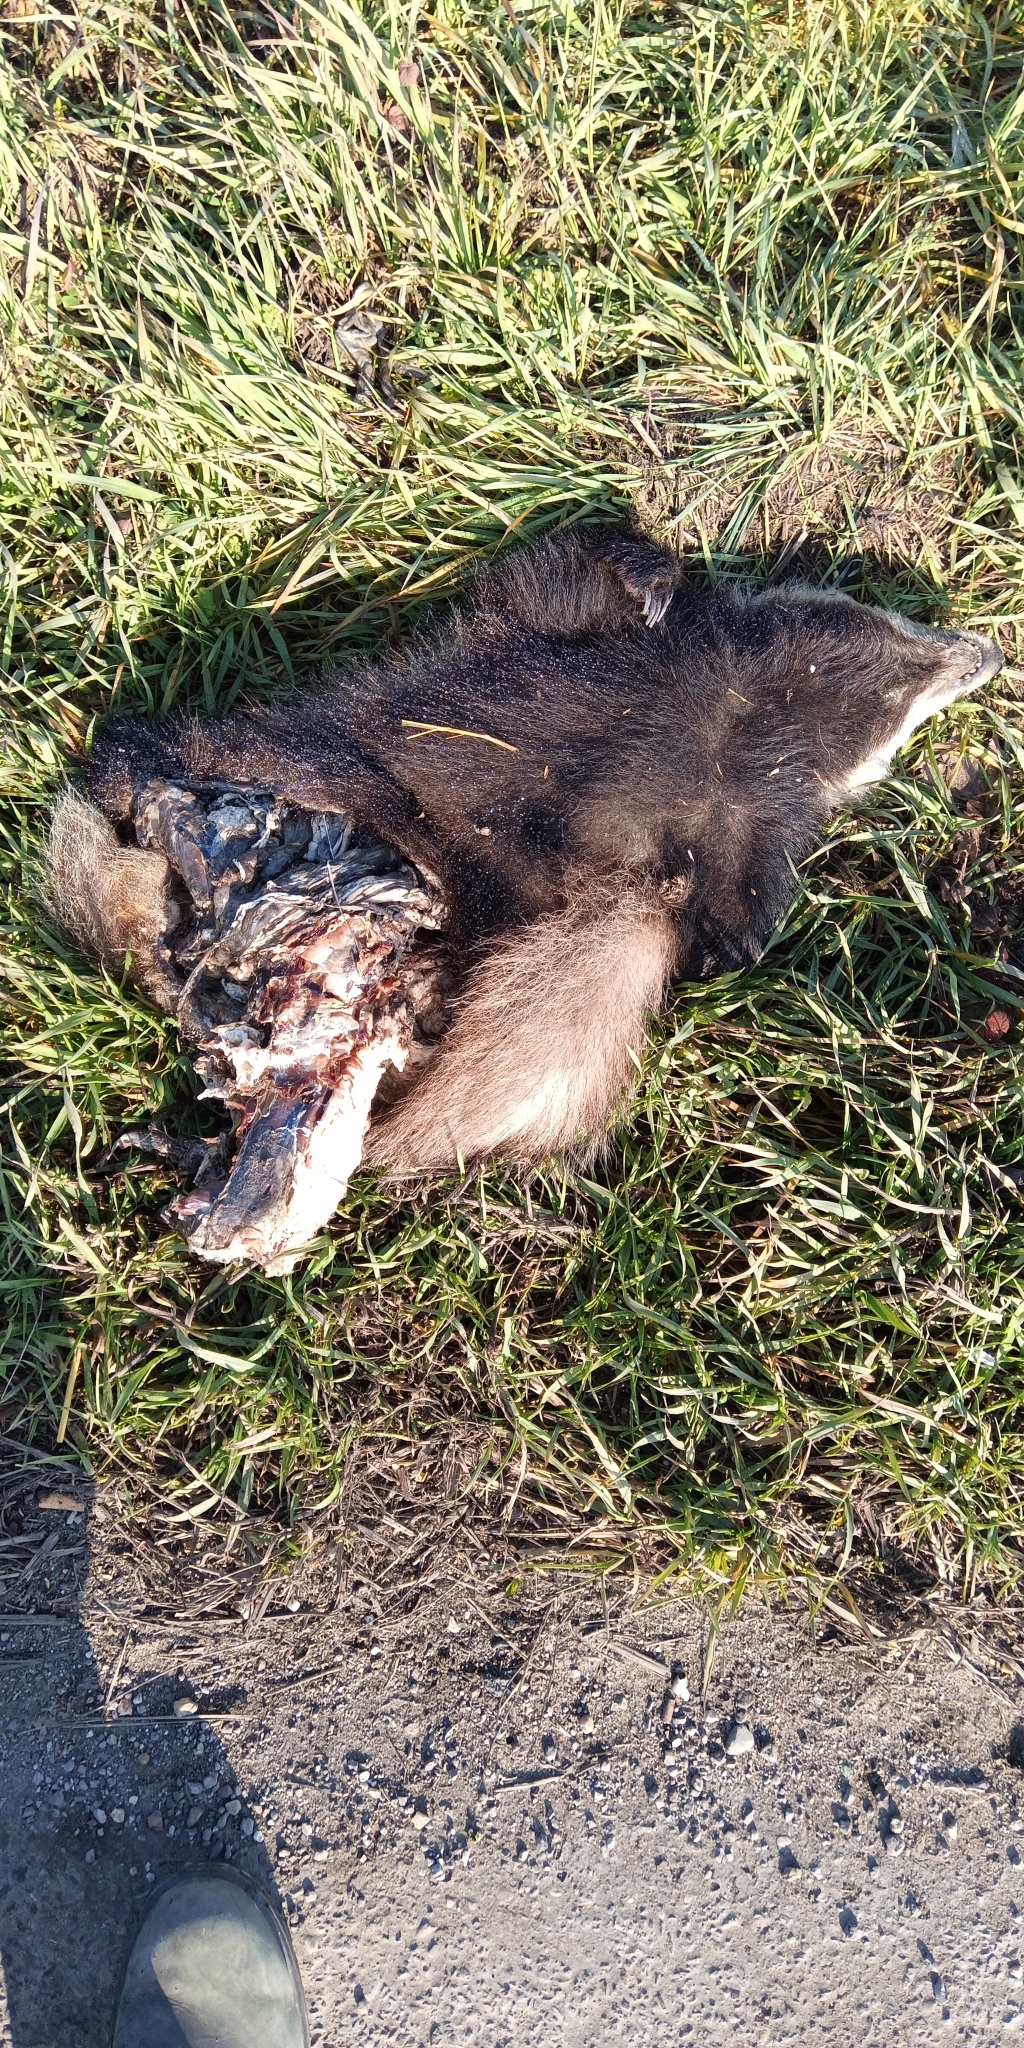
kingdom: Animalia
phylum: Chordata
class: Mammalia
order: Carnivora
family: Mustelidae
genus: Meles
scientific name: Meles meles
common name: Eurasian badger
